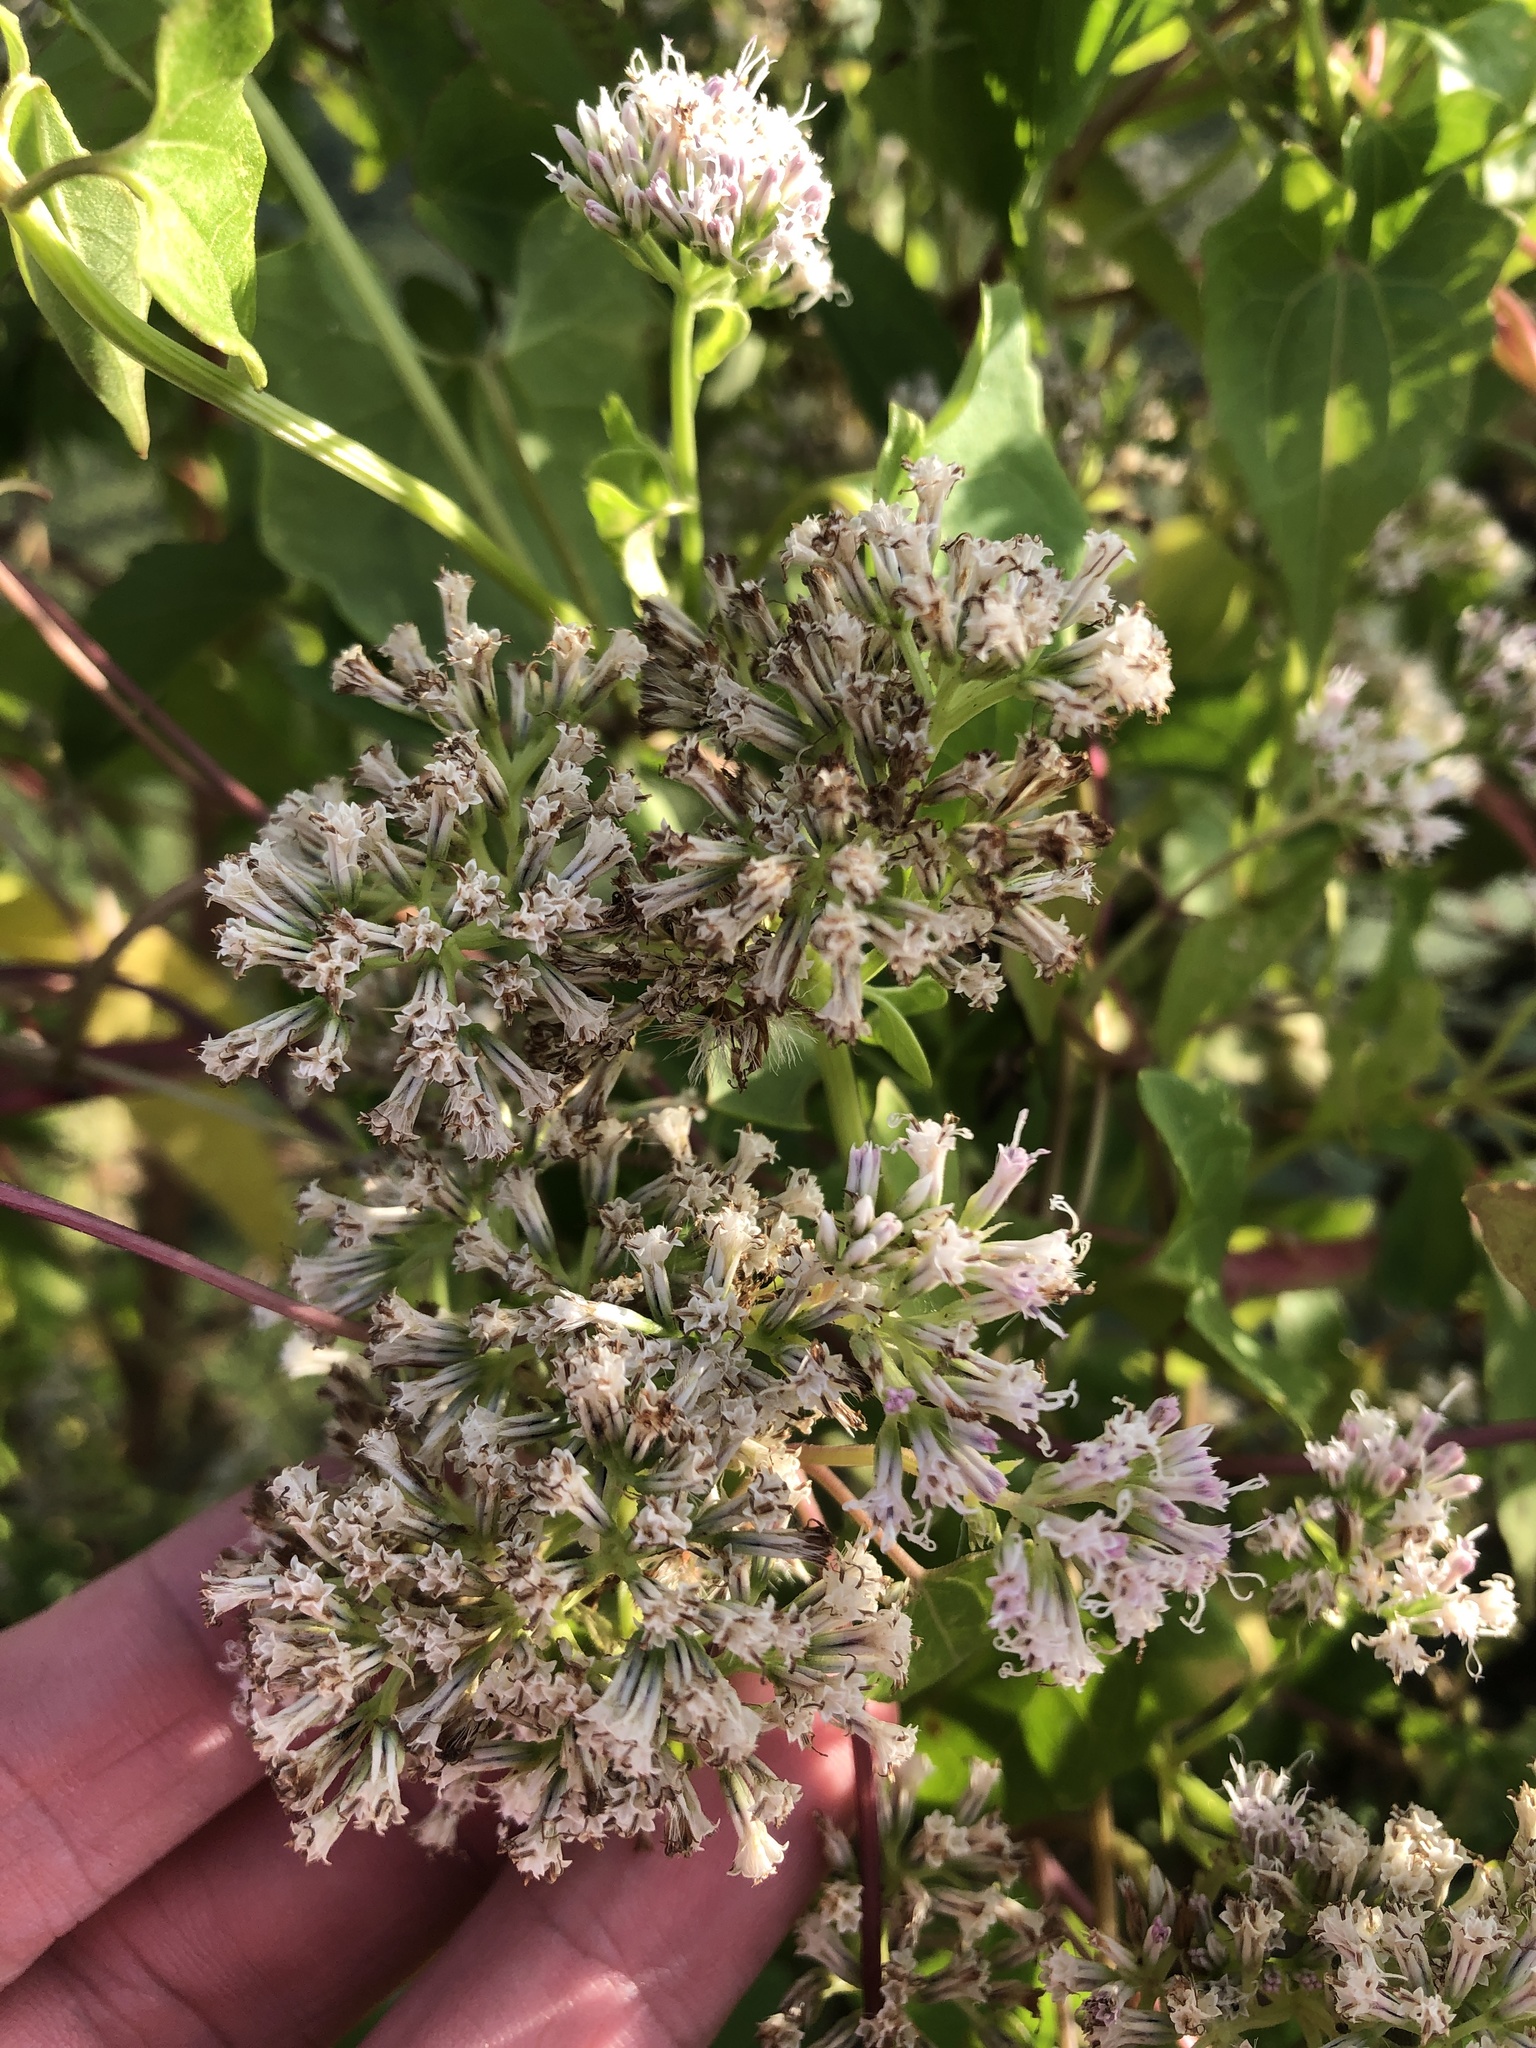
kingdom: Plantae
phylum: Tracheophyta
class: Magnoliopsida
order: Asterales
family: Asteraceae
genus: Mikania
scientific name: Mikania scandens
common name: Climbing hempvine
